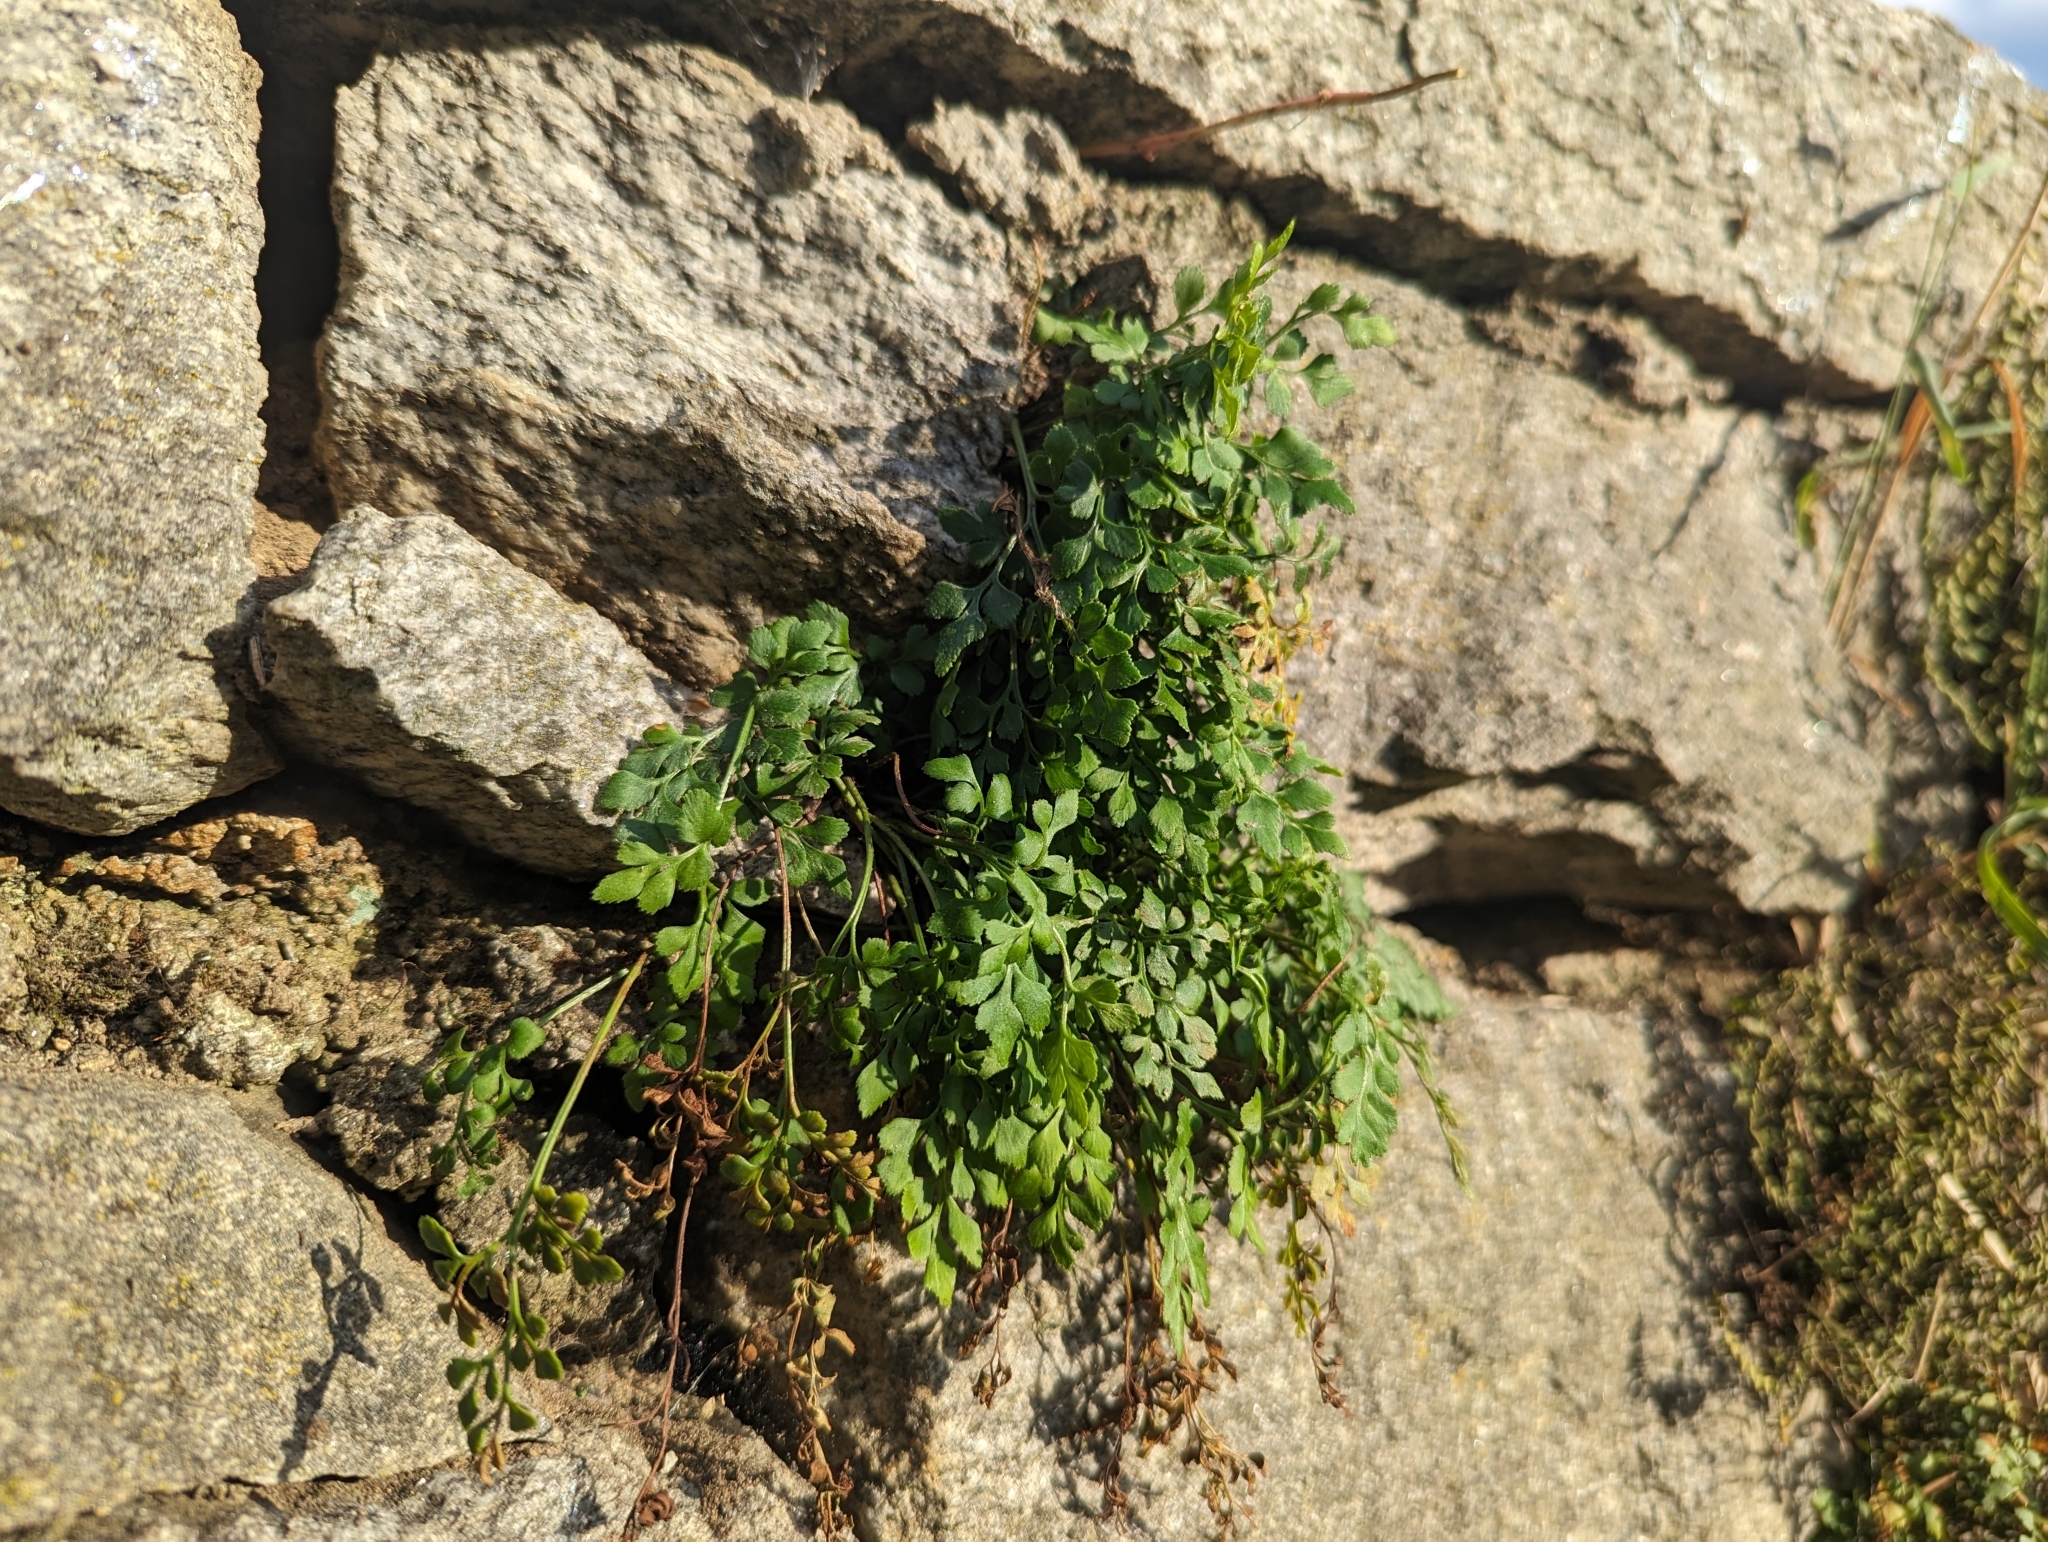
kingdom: Plantae
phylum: Tracheophyta
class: Polypodiopsida
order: Polypodiales
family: Aspleniaceae
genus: Asplenium
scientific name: Asplenium ruta-muraria
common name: Wall-rue
